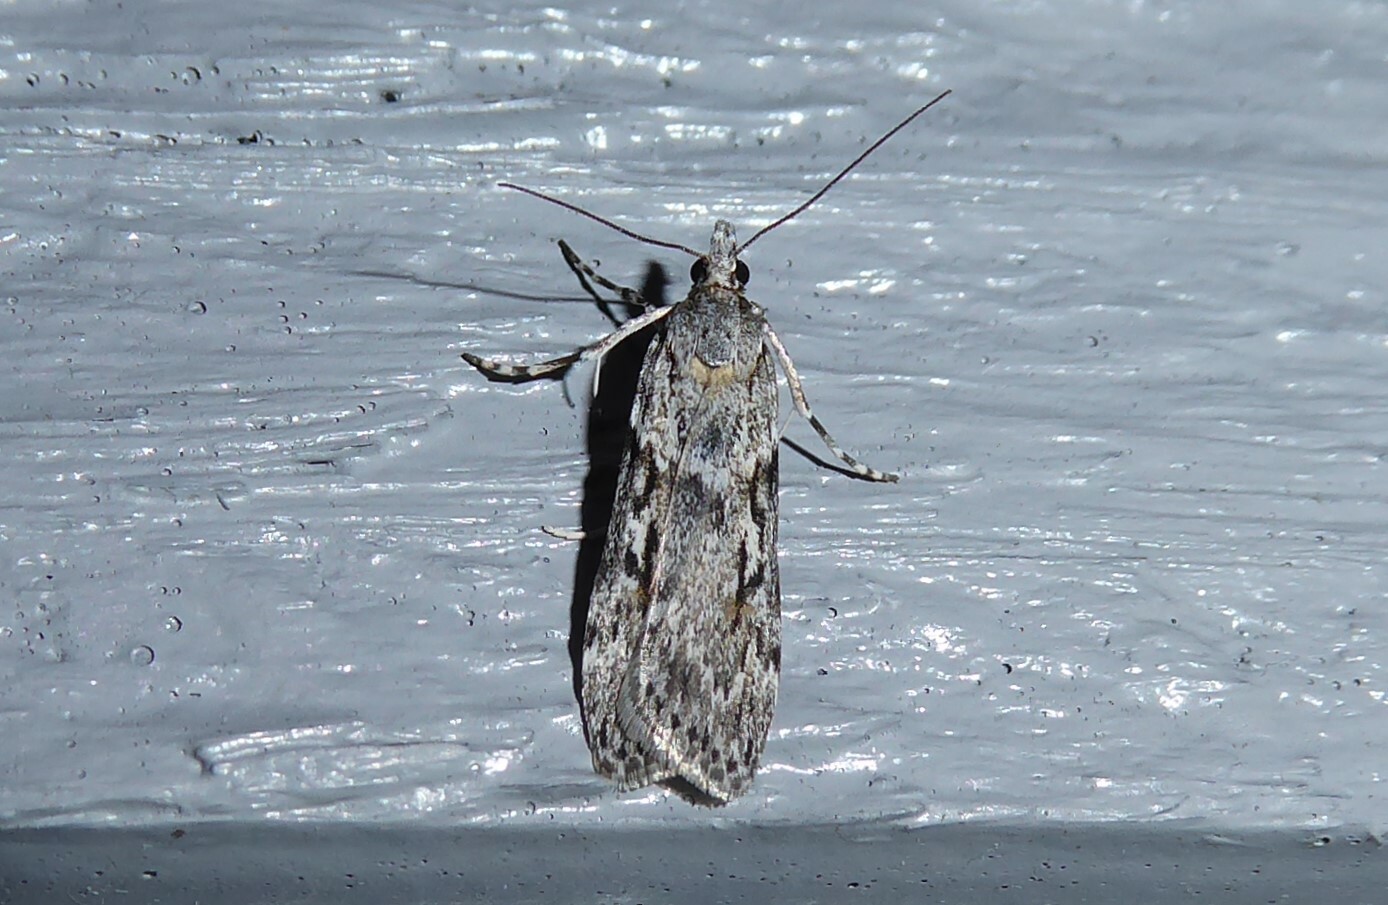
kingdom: Animalia
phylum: Arthropoda
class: Insecta
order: Lepidoptera
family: Crambidae
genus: Scoparia
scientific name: Scoparia halopis
